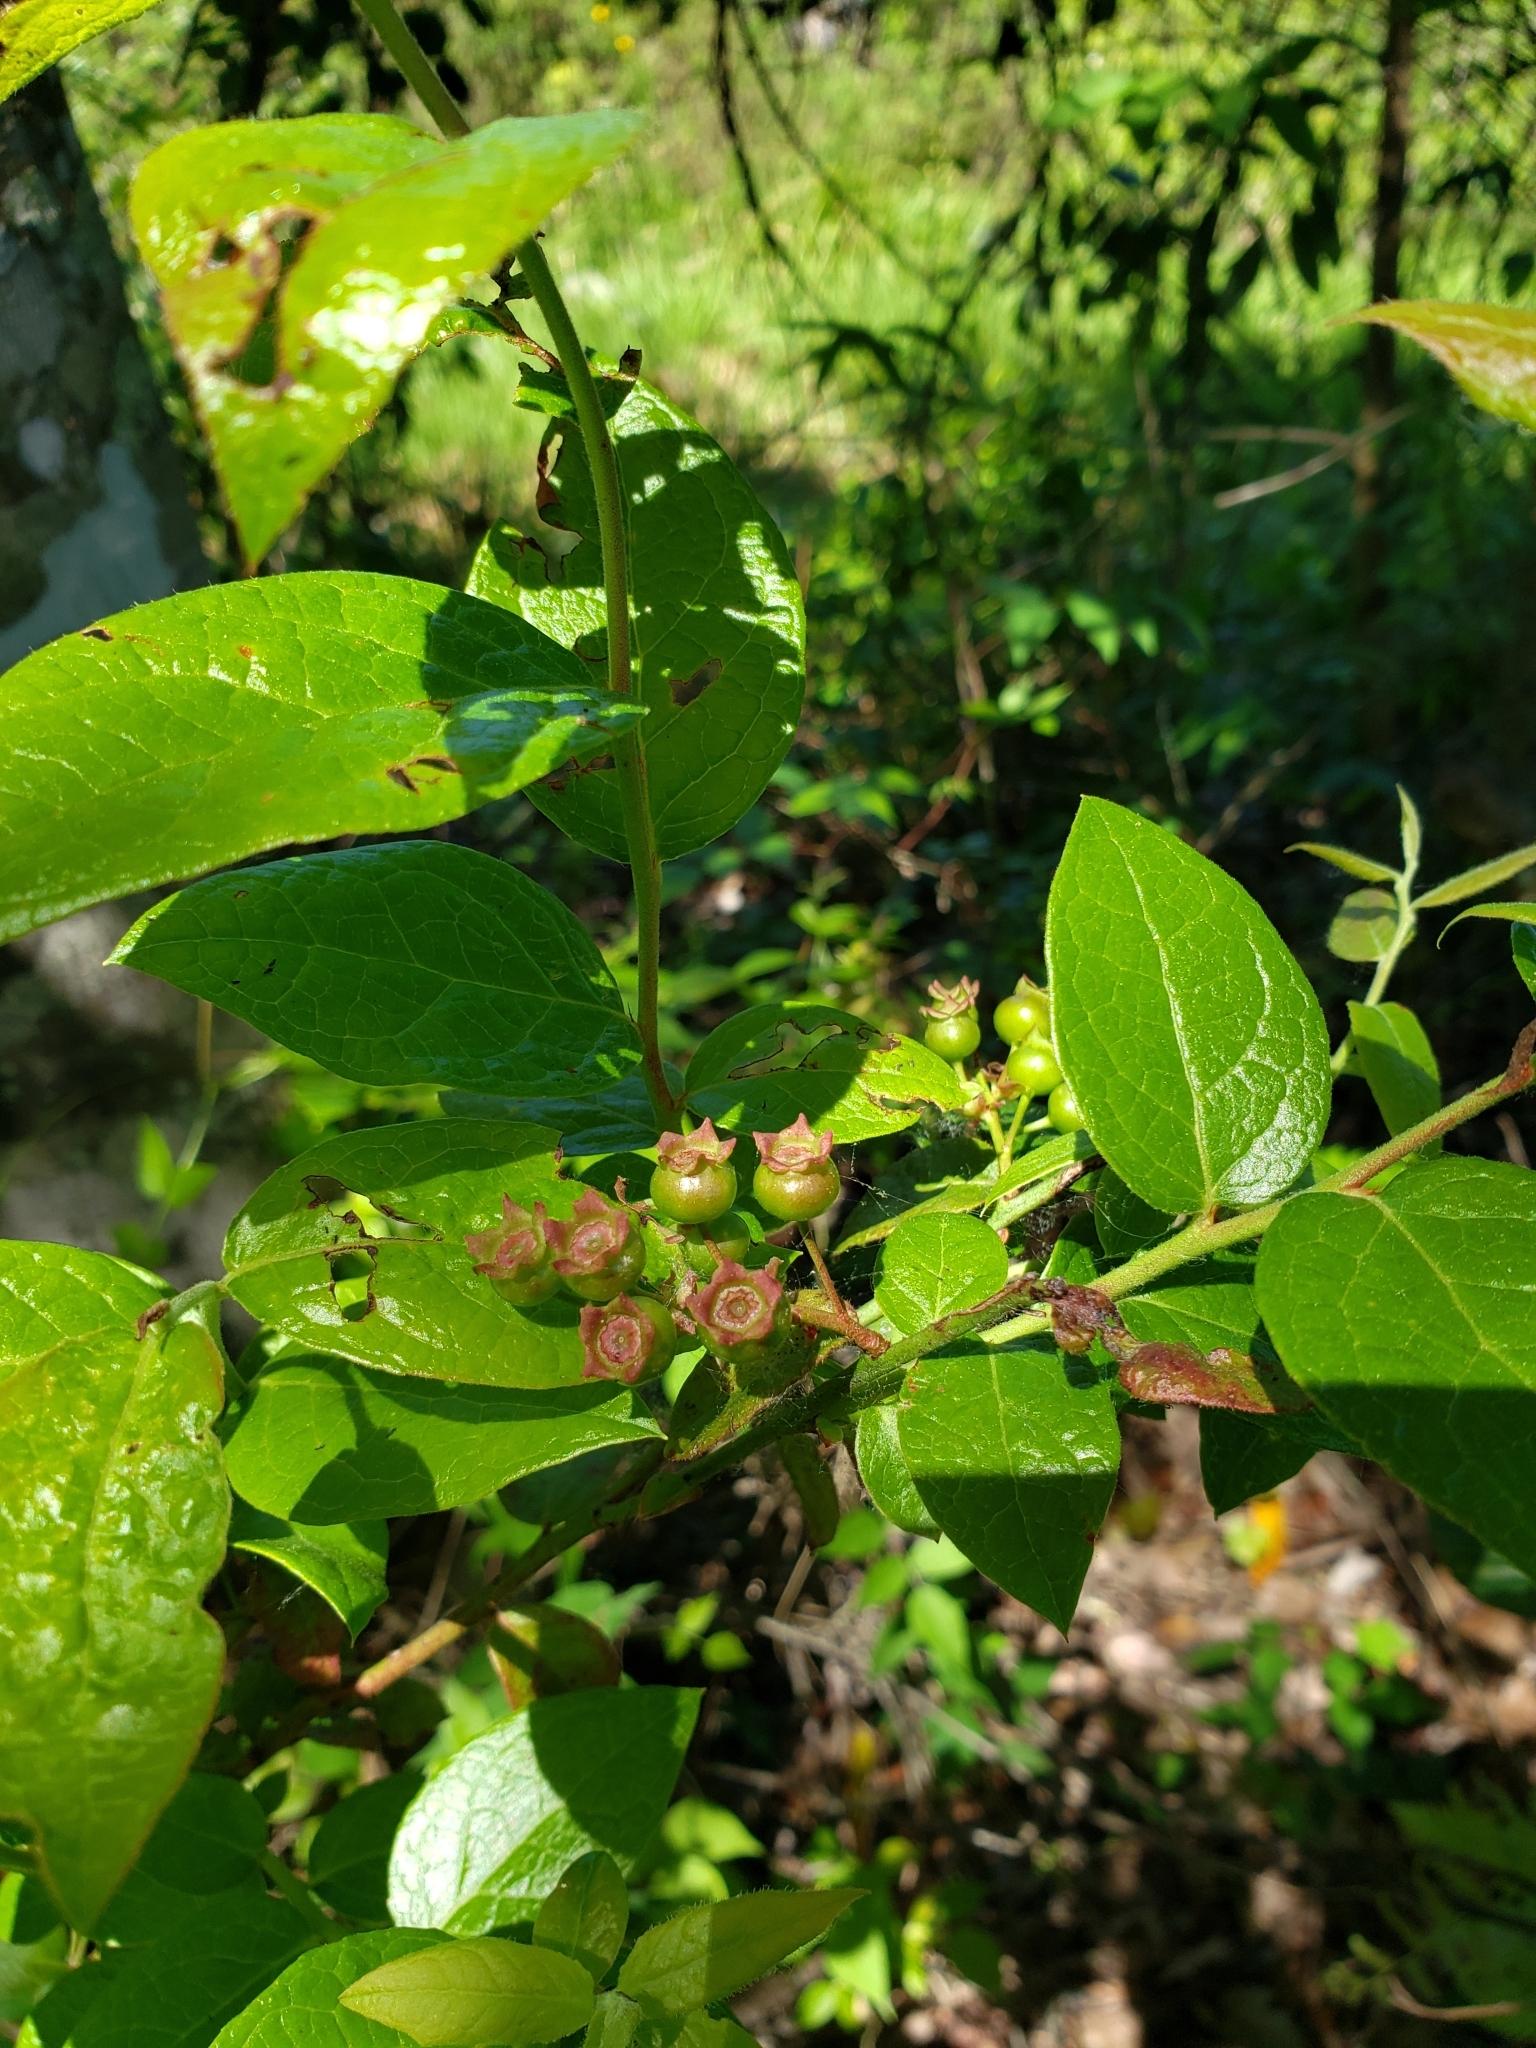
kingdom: Plantae
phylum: Tracheophyta
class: Magnoliopsida
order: Ericales
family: Ericaceae
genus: Vaccinium
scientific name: Vaccinium corymbosum
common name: Blueberry
